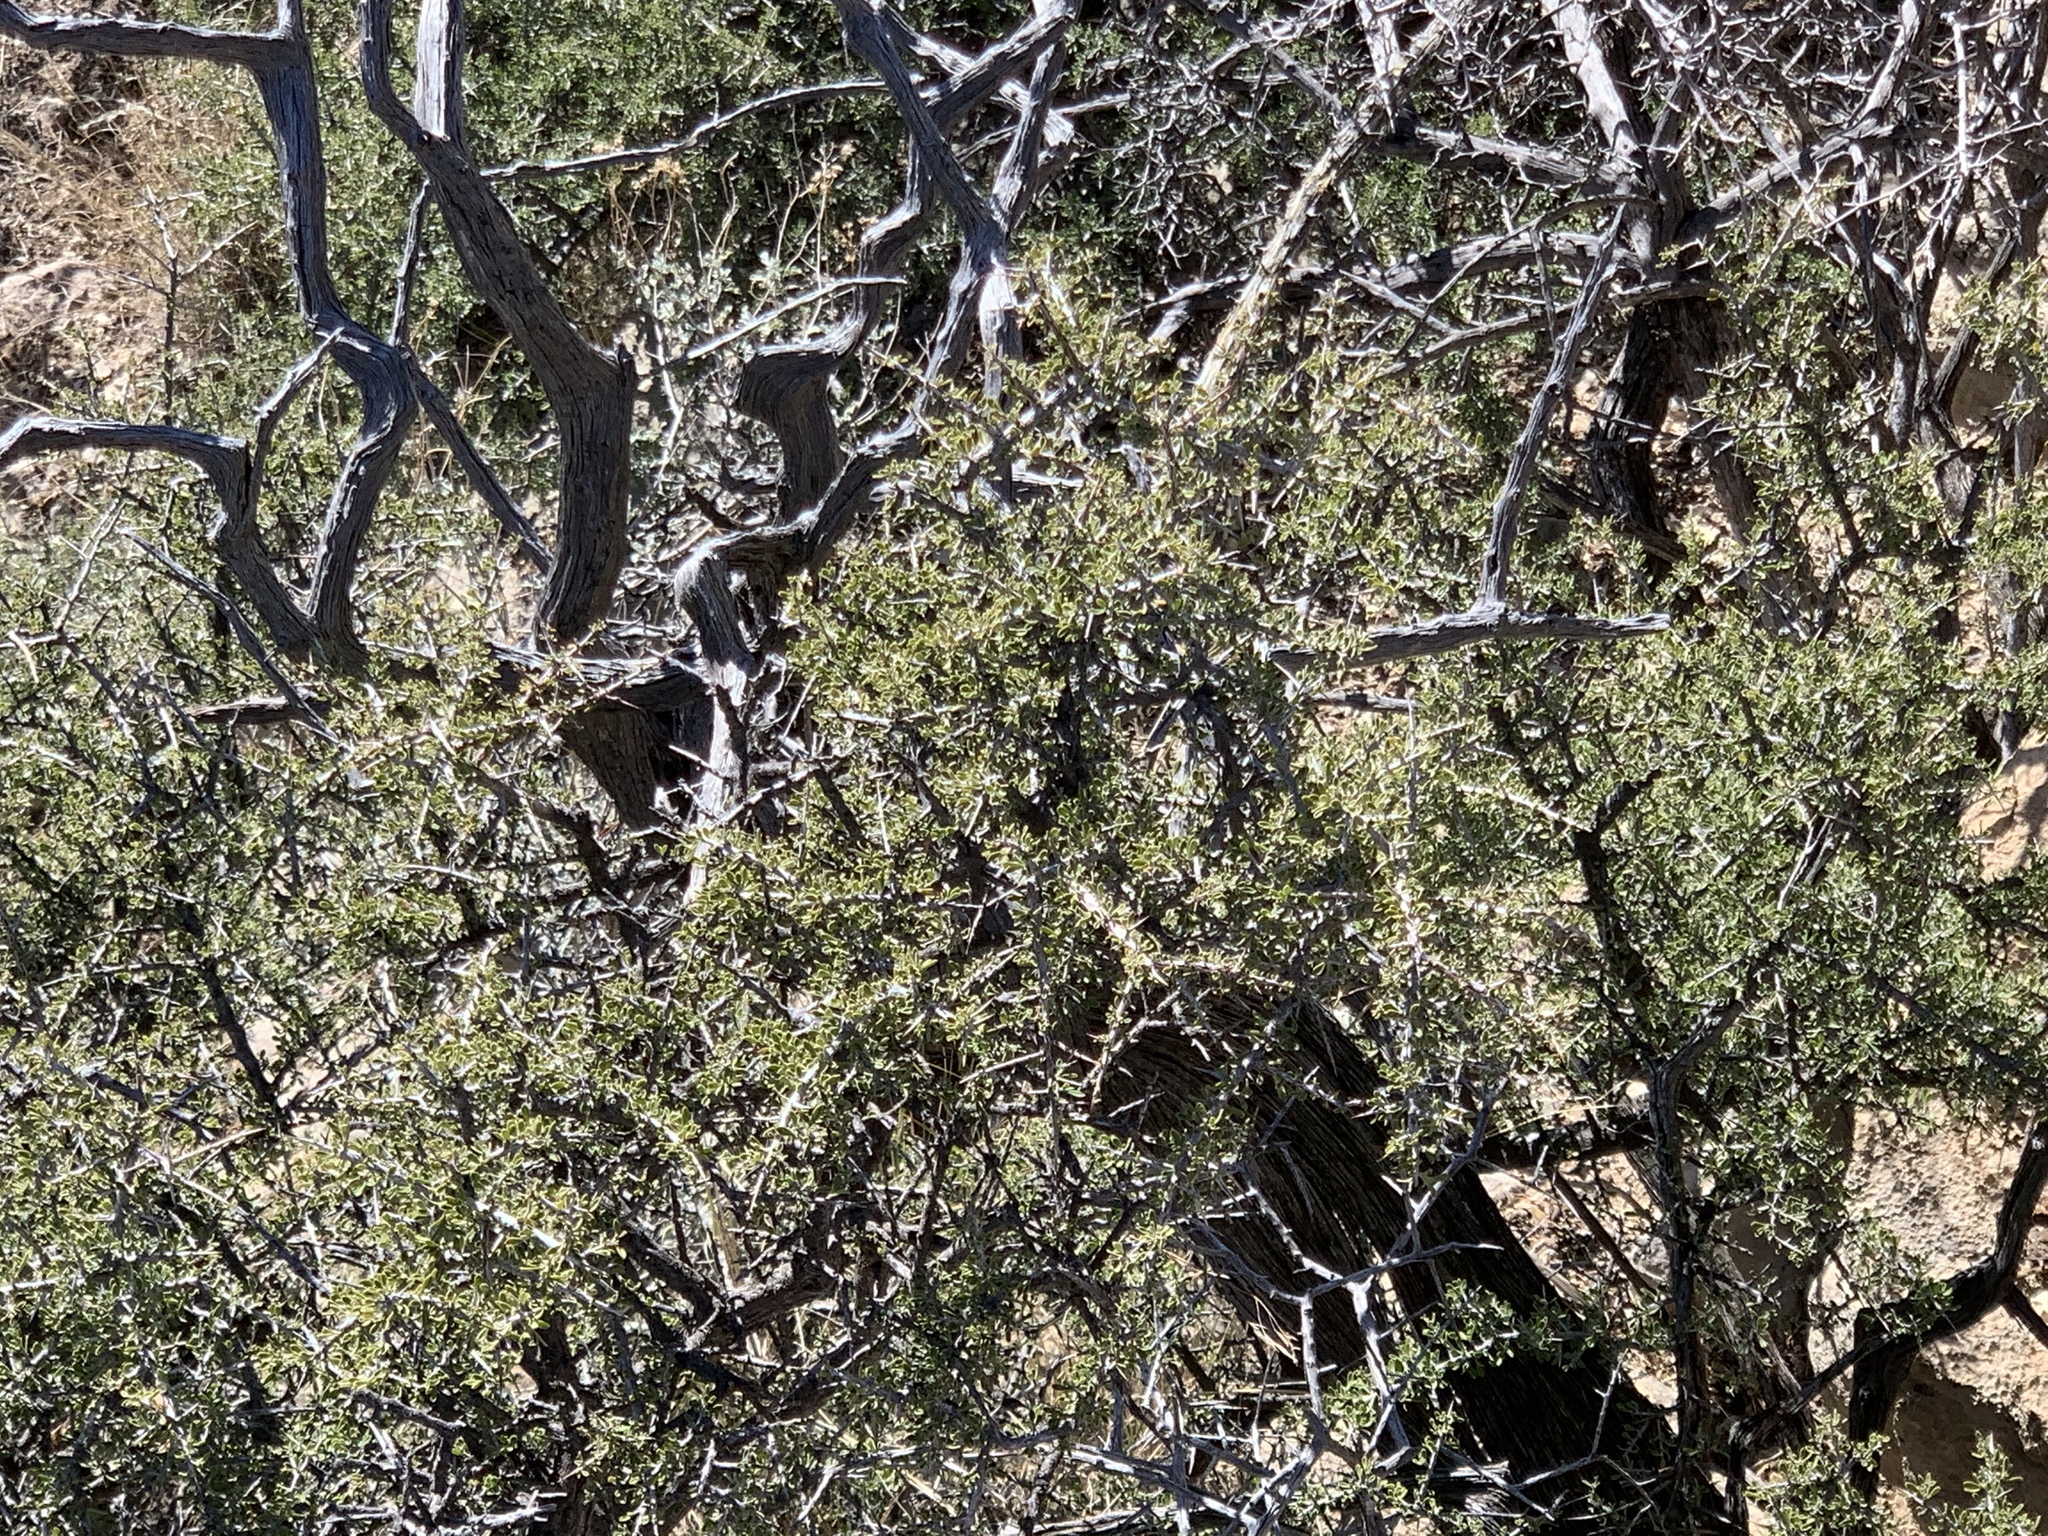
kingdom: Plantae
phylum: Tracheophyta
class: Magnoliopsida
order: Rosales
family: Rhamnaceae
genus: Condalia
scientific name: Condalia warnockii
